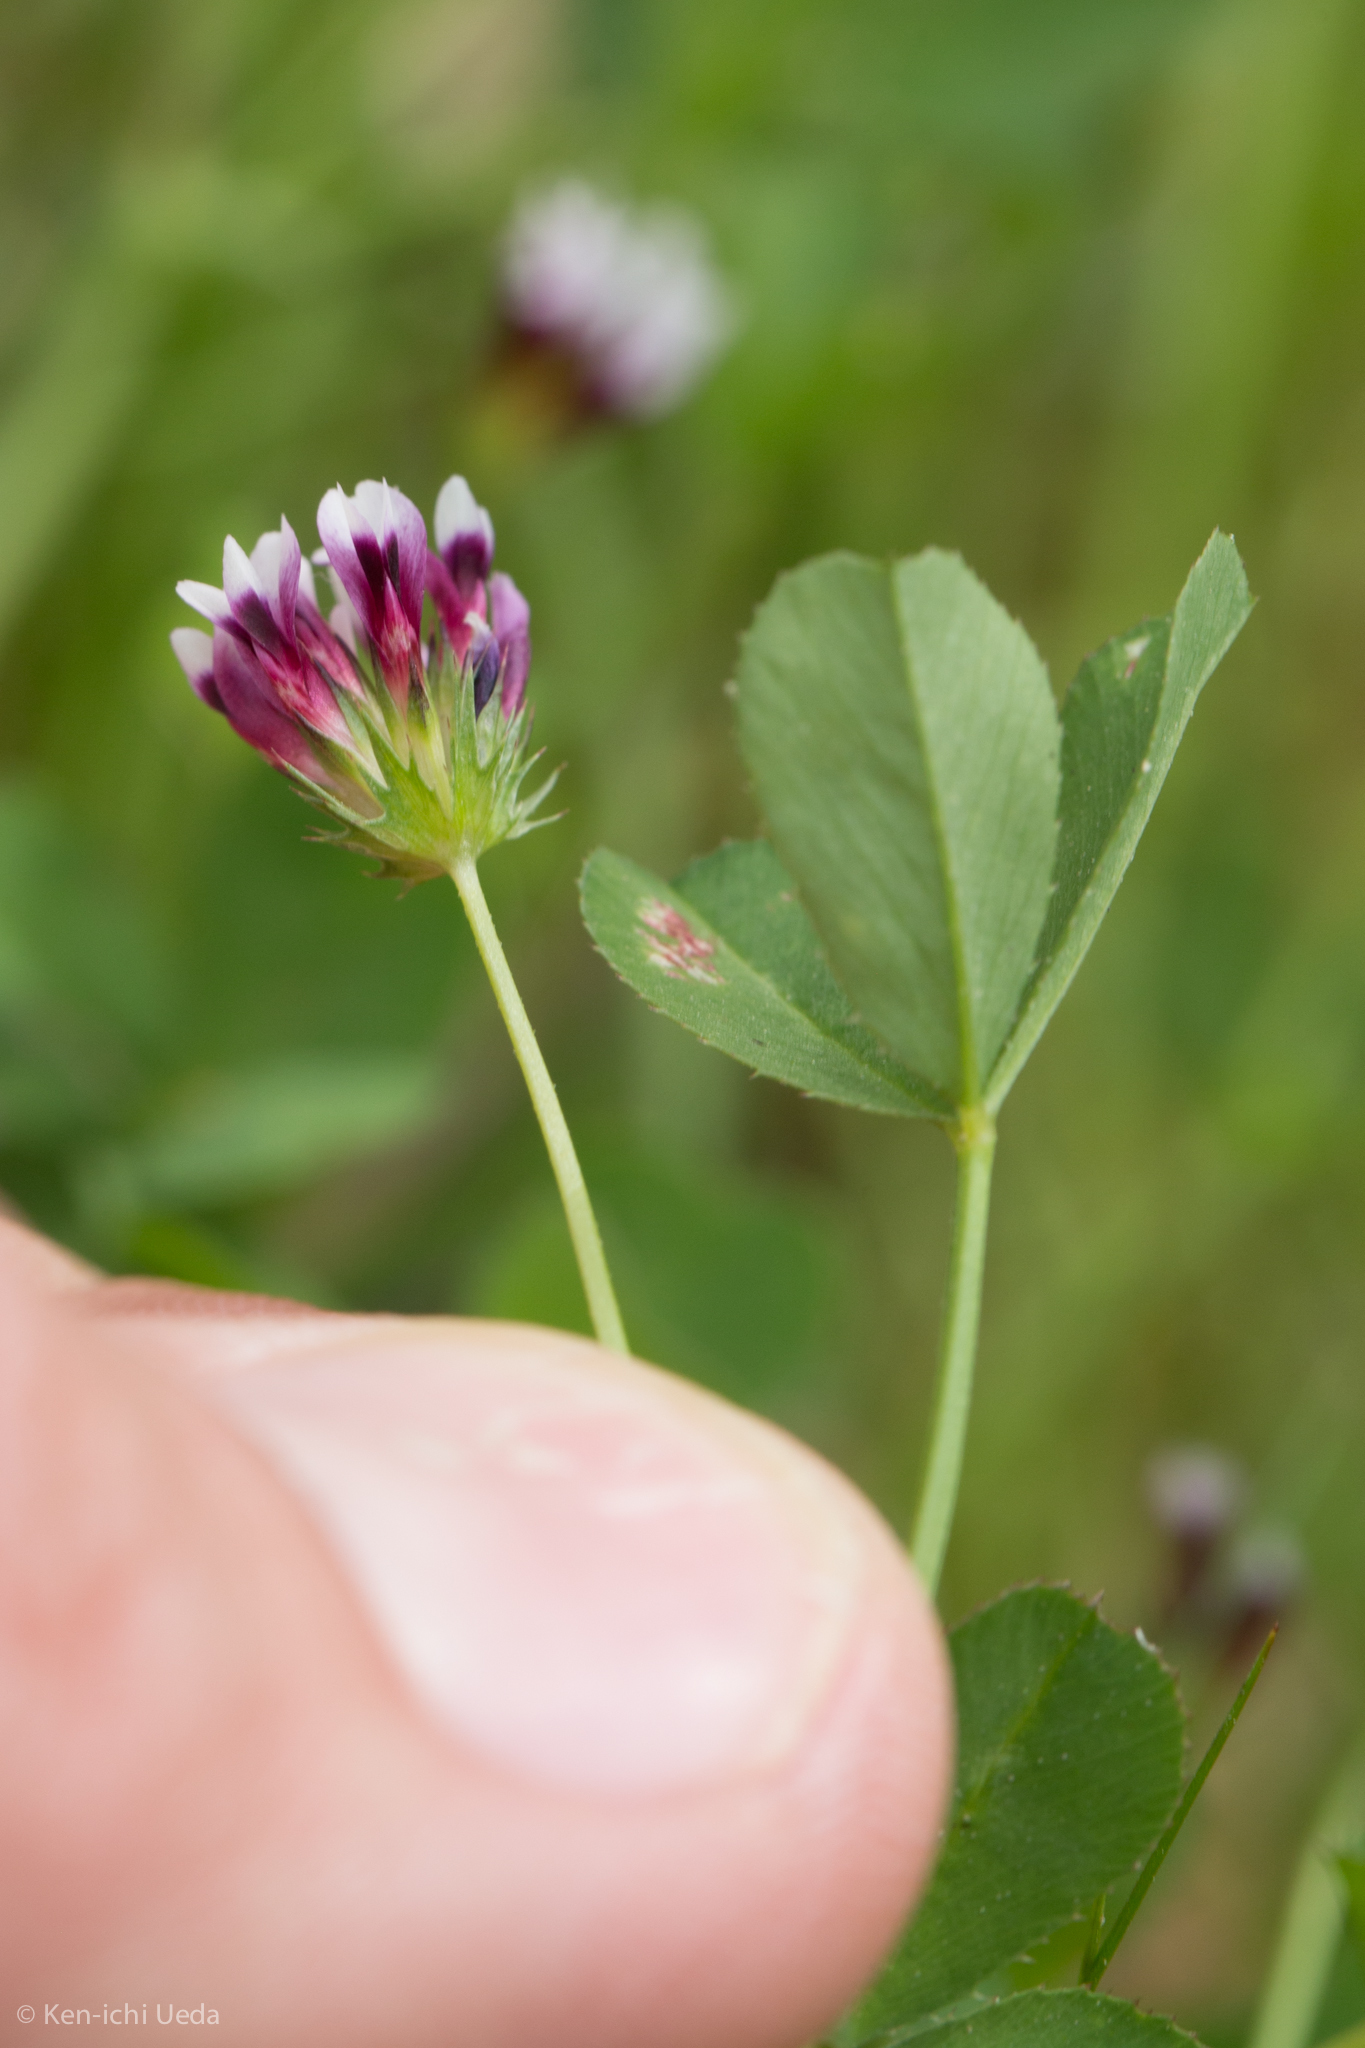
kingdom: Plantae
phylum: Tracheophyta
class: Magnoliopsida
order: Fabales
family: Fabaceae
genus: Trifolium
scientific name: Trifolium variegatum
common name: Whitetip clover
